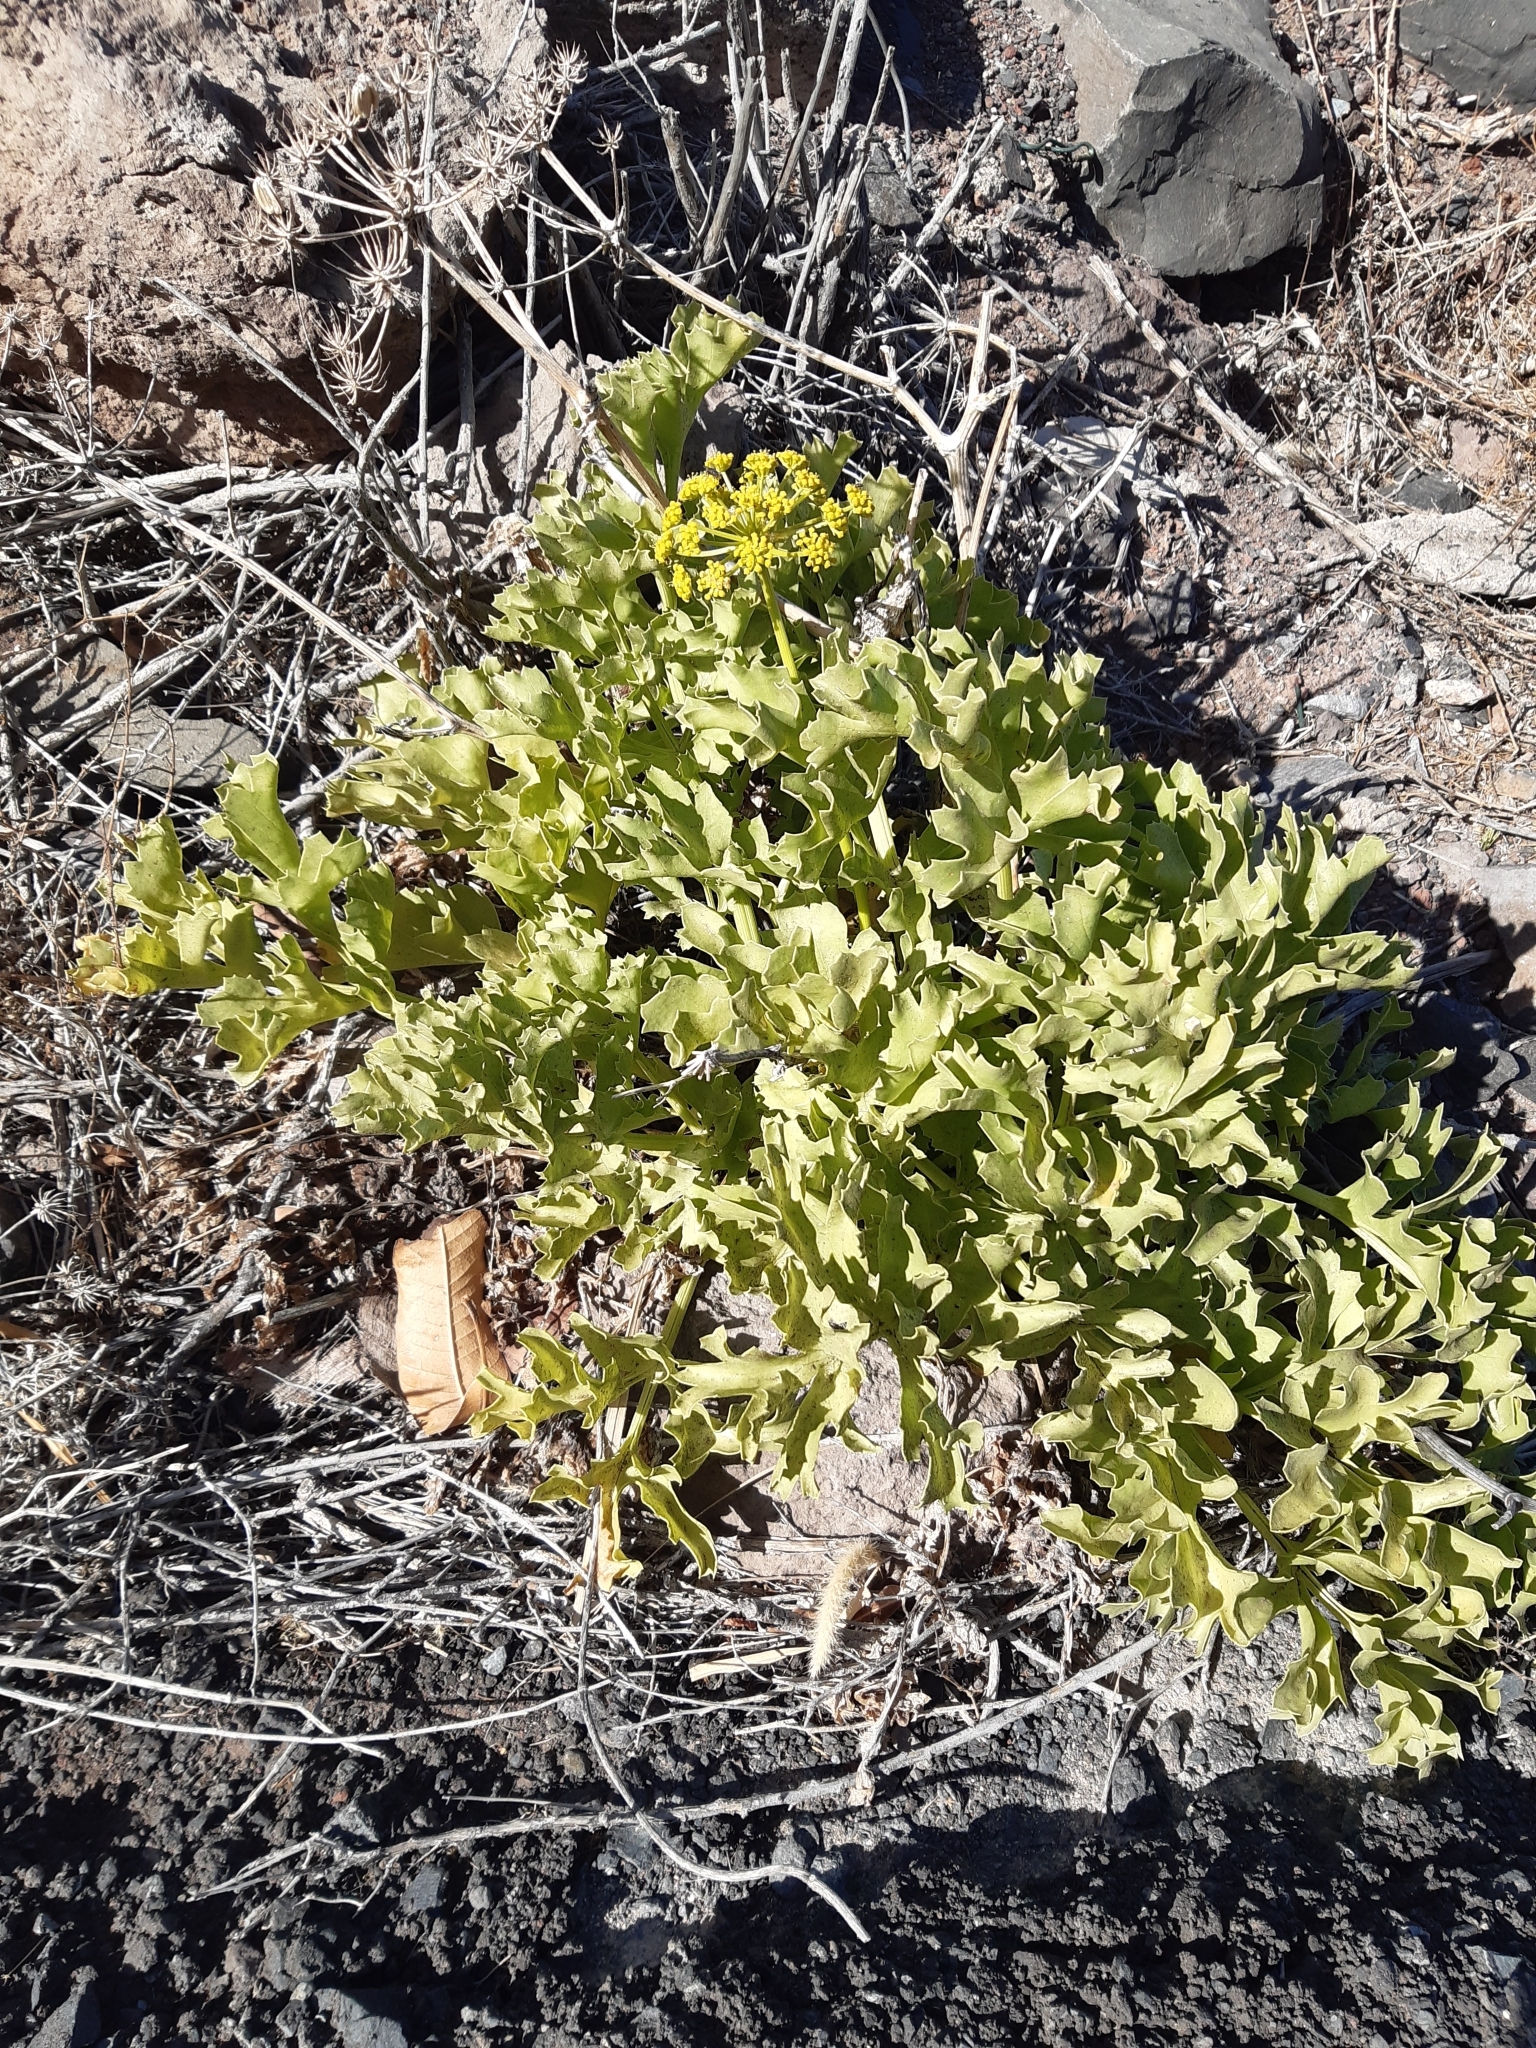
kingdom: Plantae
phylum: Tracheophyta
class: Magnoliopsida
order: Apiales
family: Apiaceae
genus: Astydamia
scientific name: Astydamia latifolia
